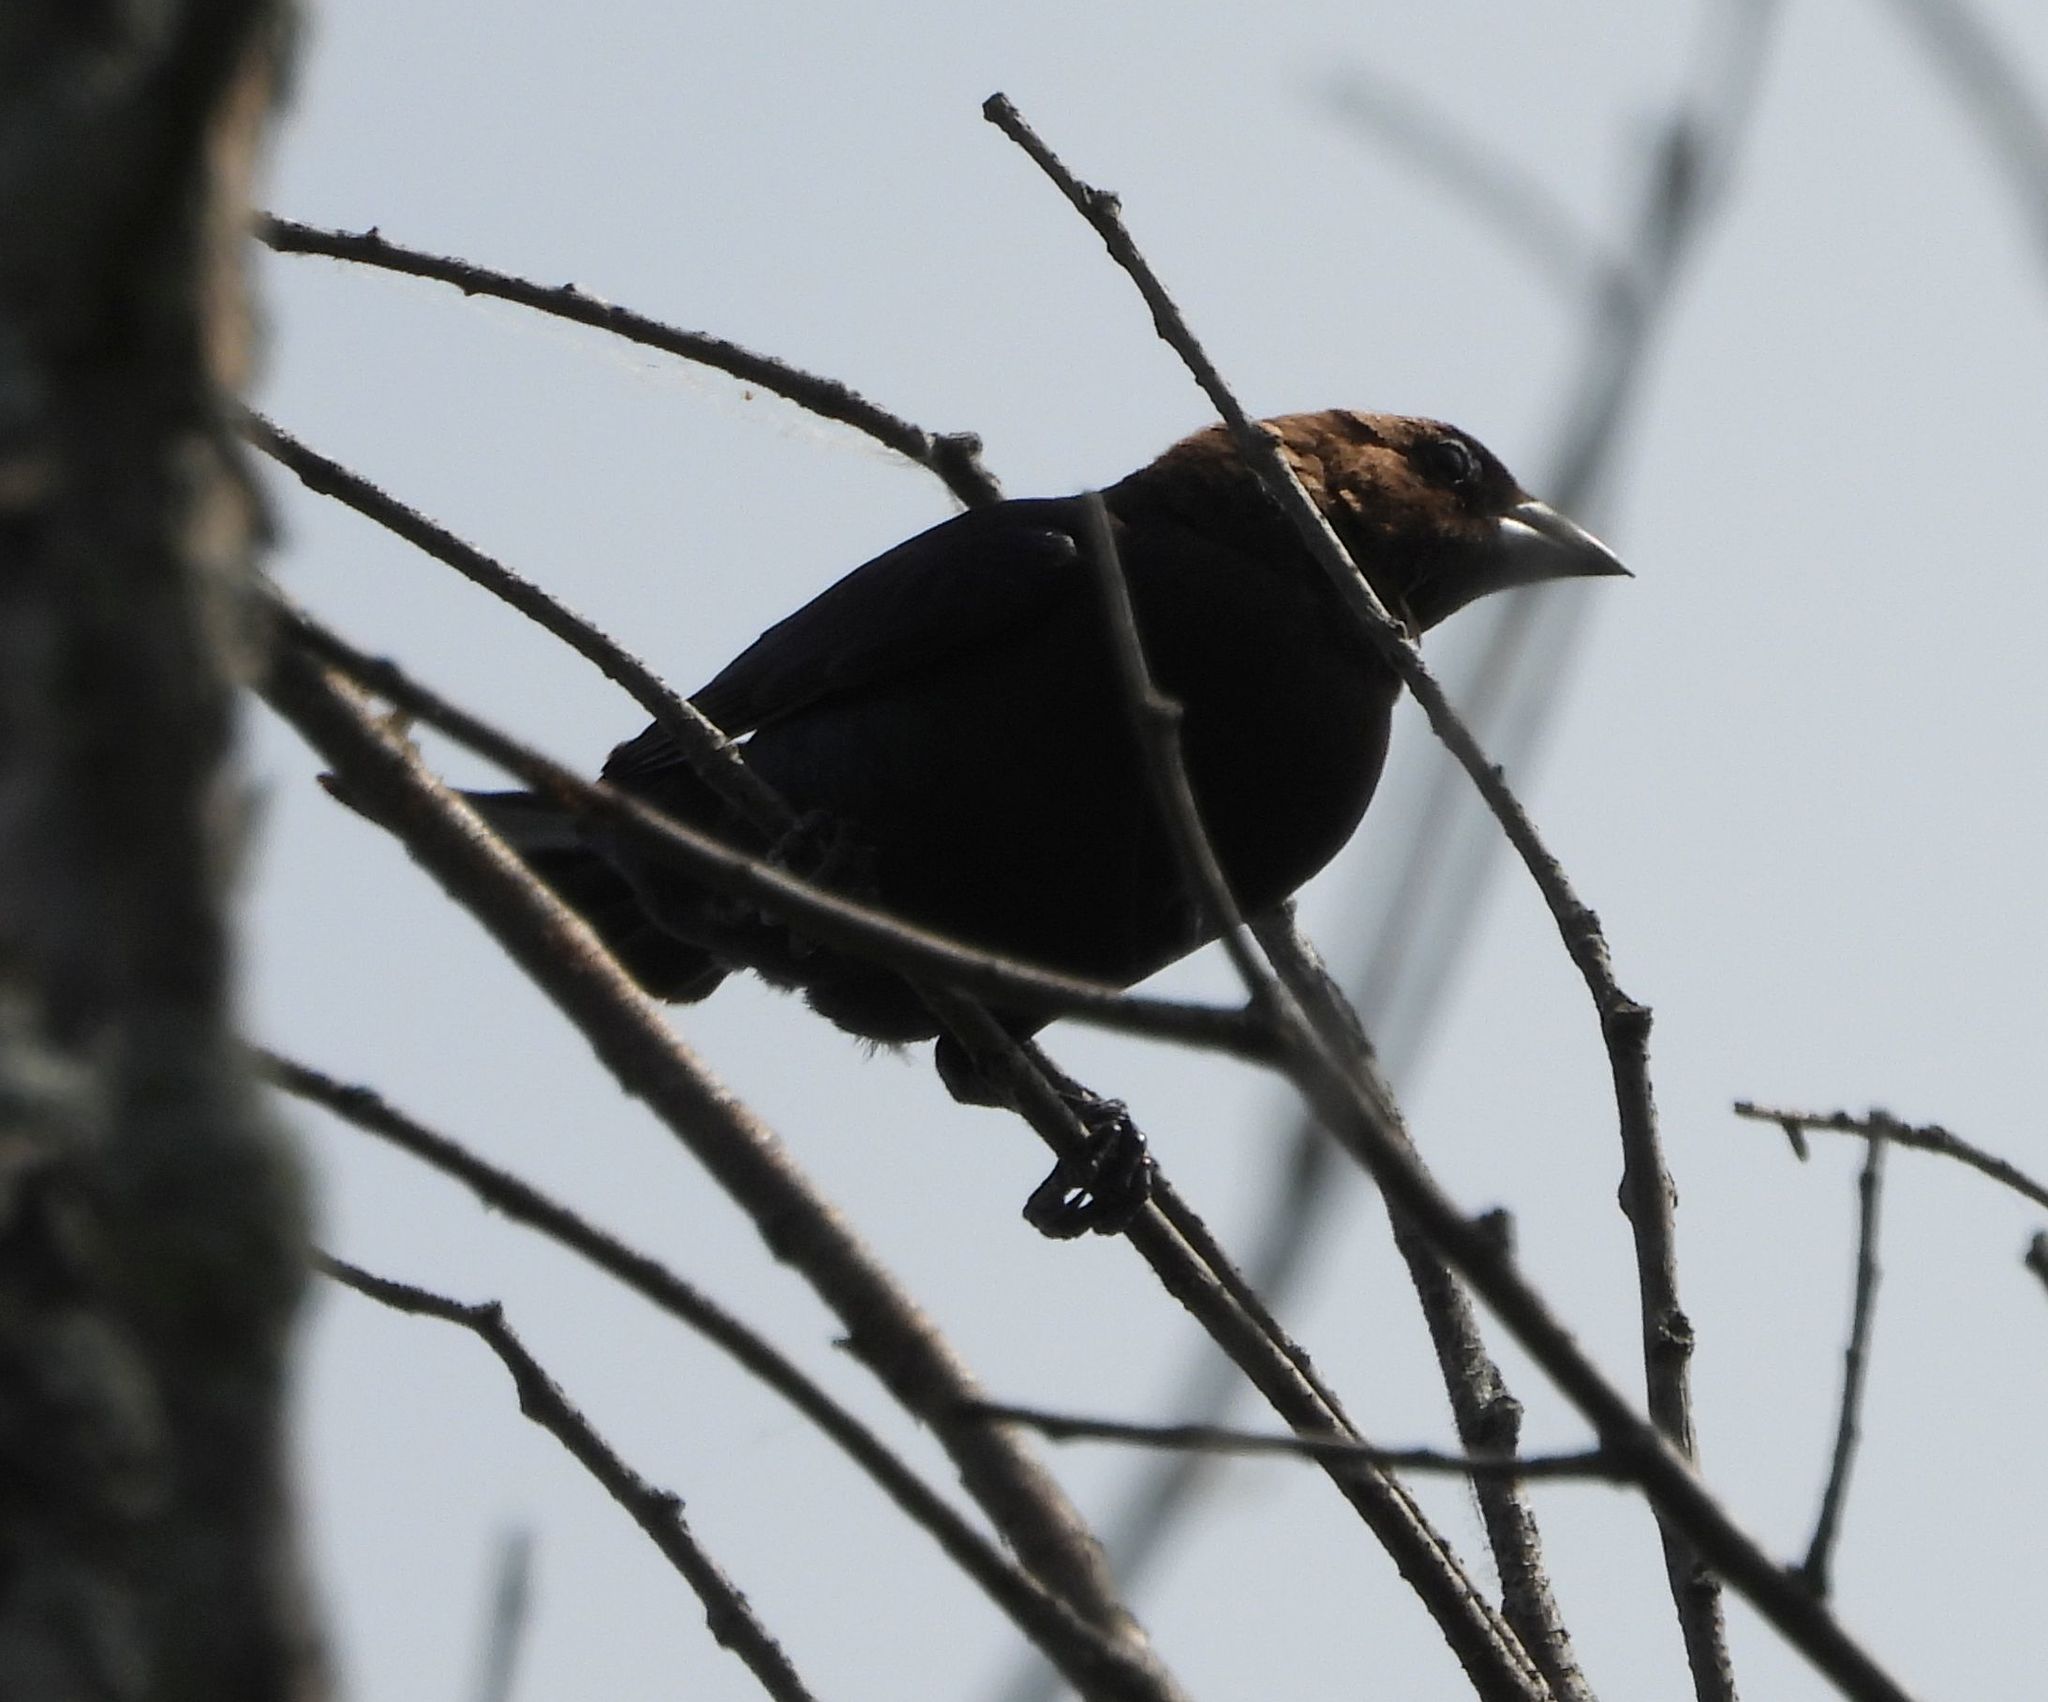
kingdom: Animalia
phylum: Chordata
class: Aves
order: Passeriformes
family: Icteridae
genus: Molothrus
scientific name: Molothrus ater
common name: Brown-headed cowbird
